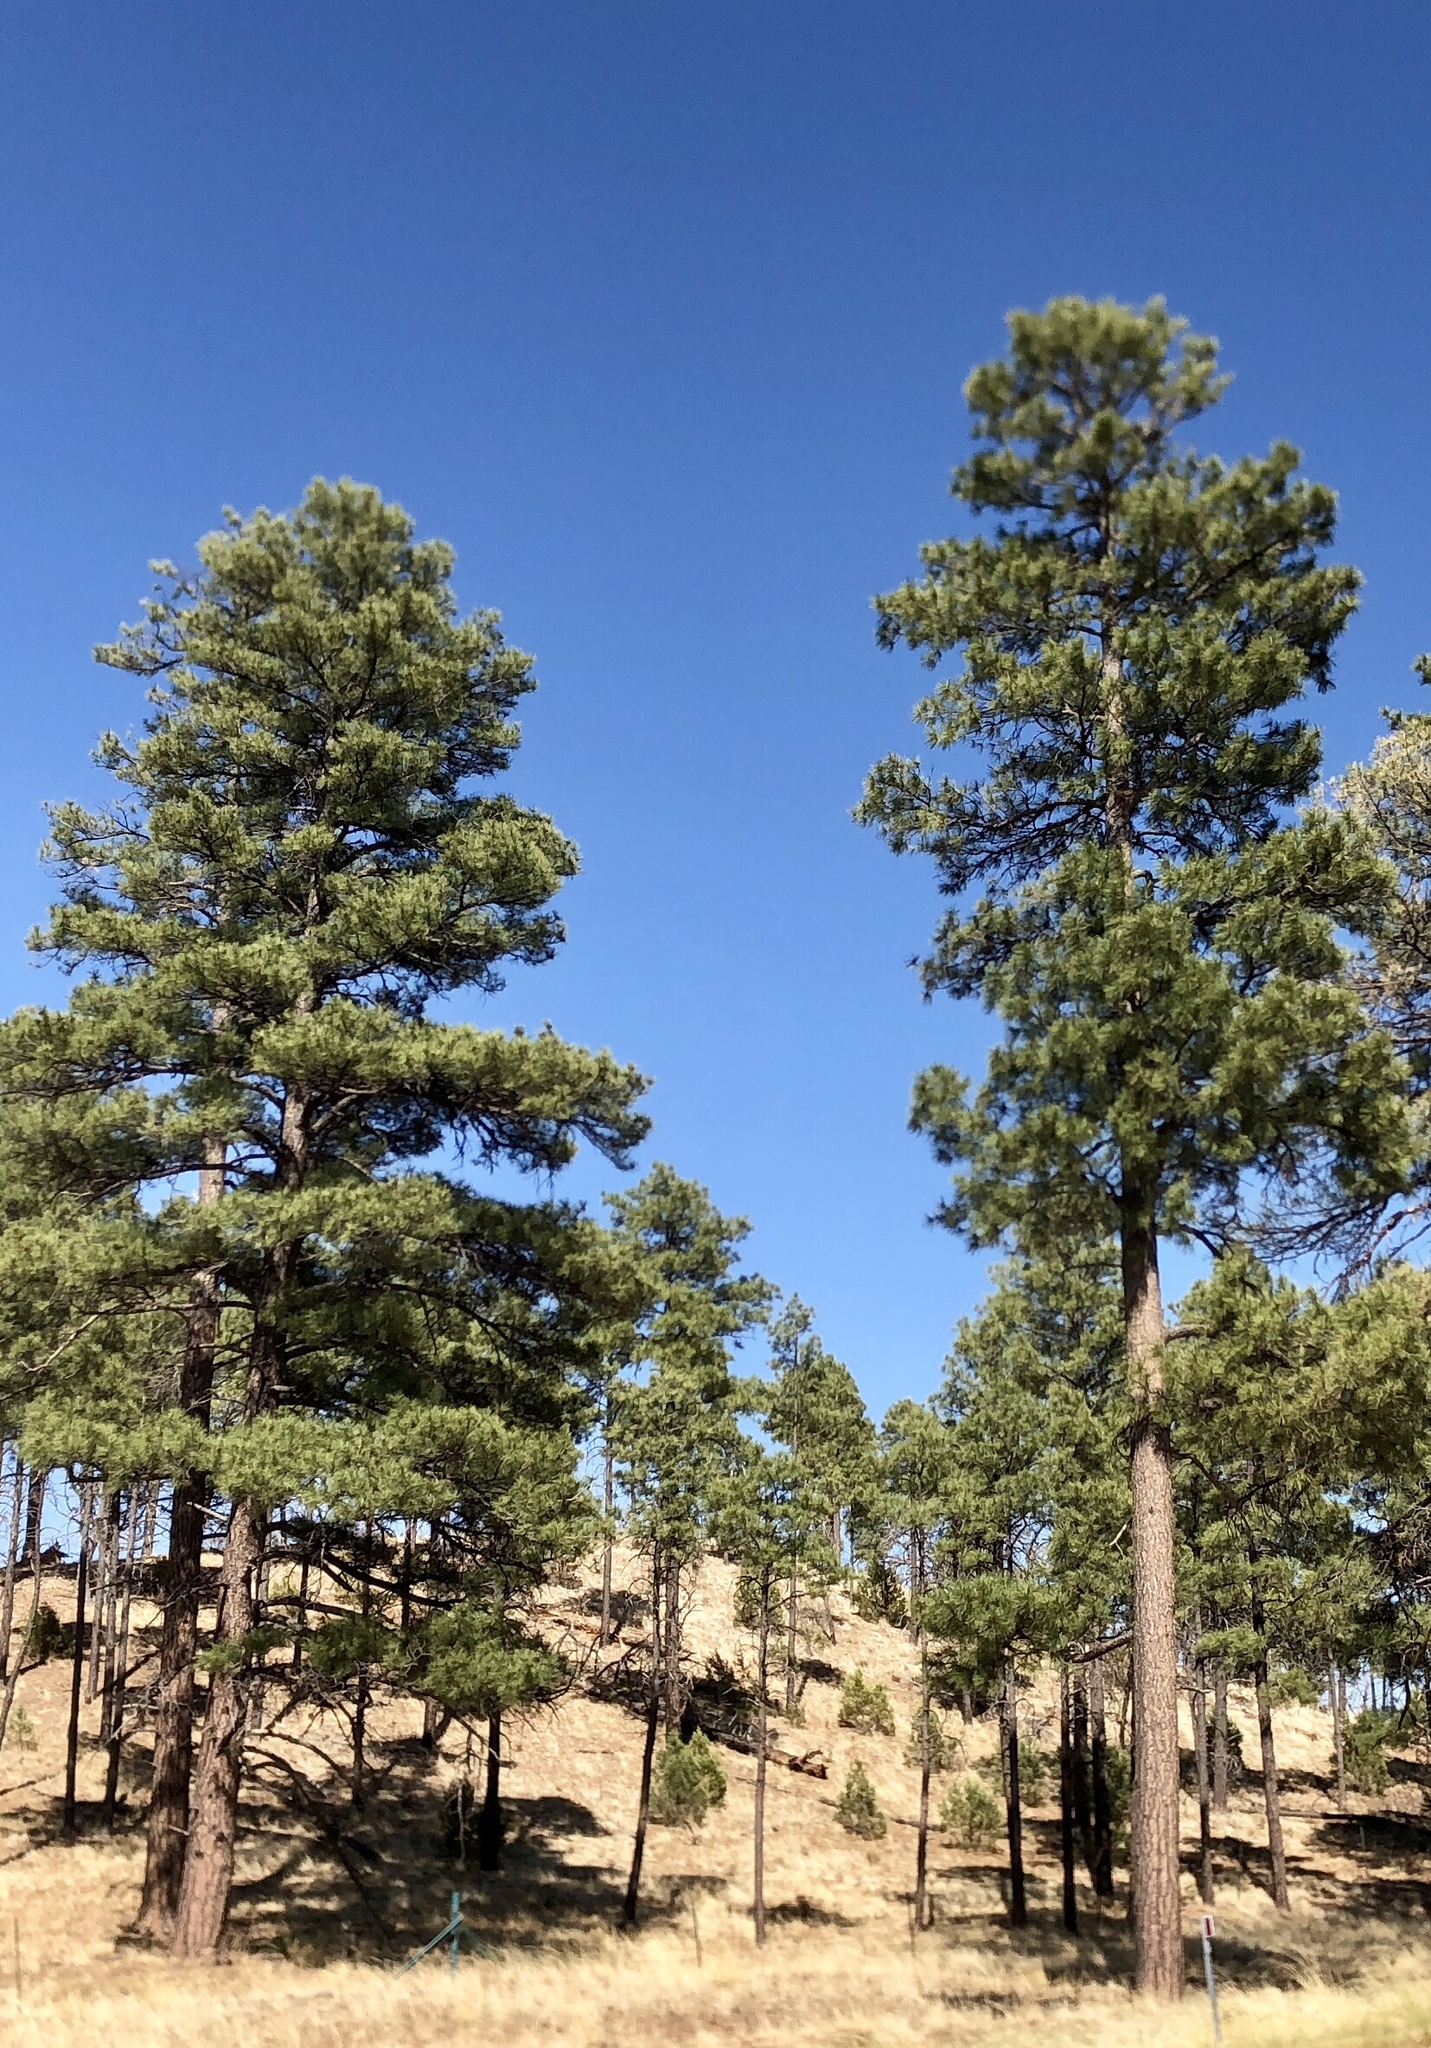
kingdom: Plantae
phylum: Tracheophyta
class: Pinopsida
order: Pinales
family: Pinaceae
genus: Pinus
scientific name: Pinus ponderosa
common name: Western yellow-pine
